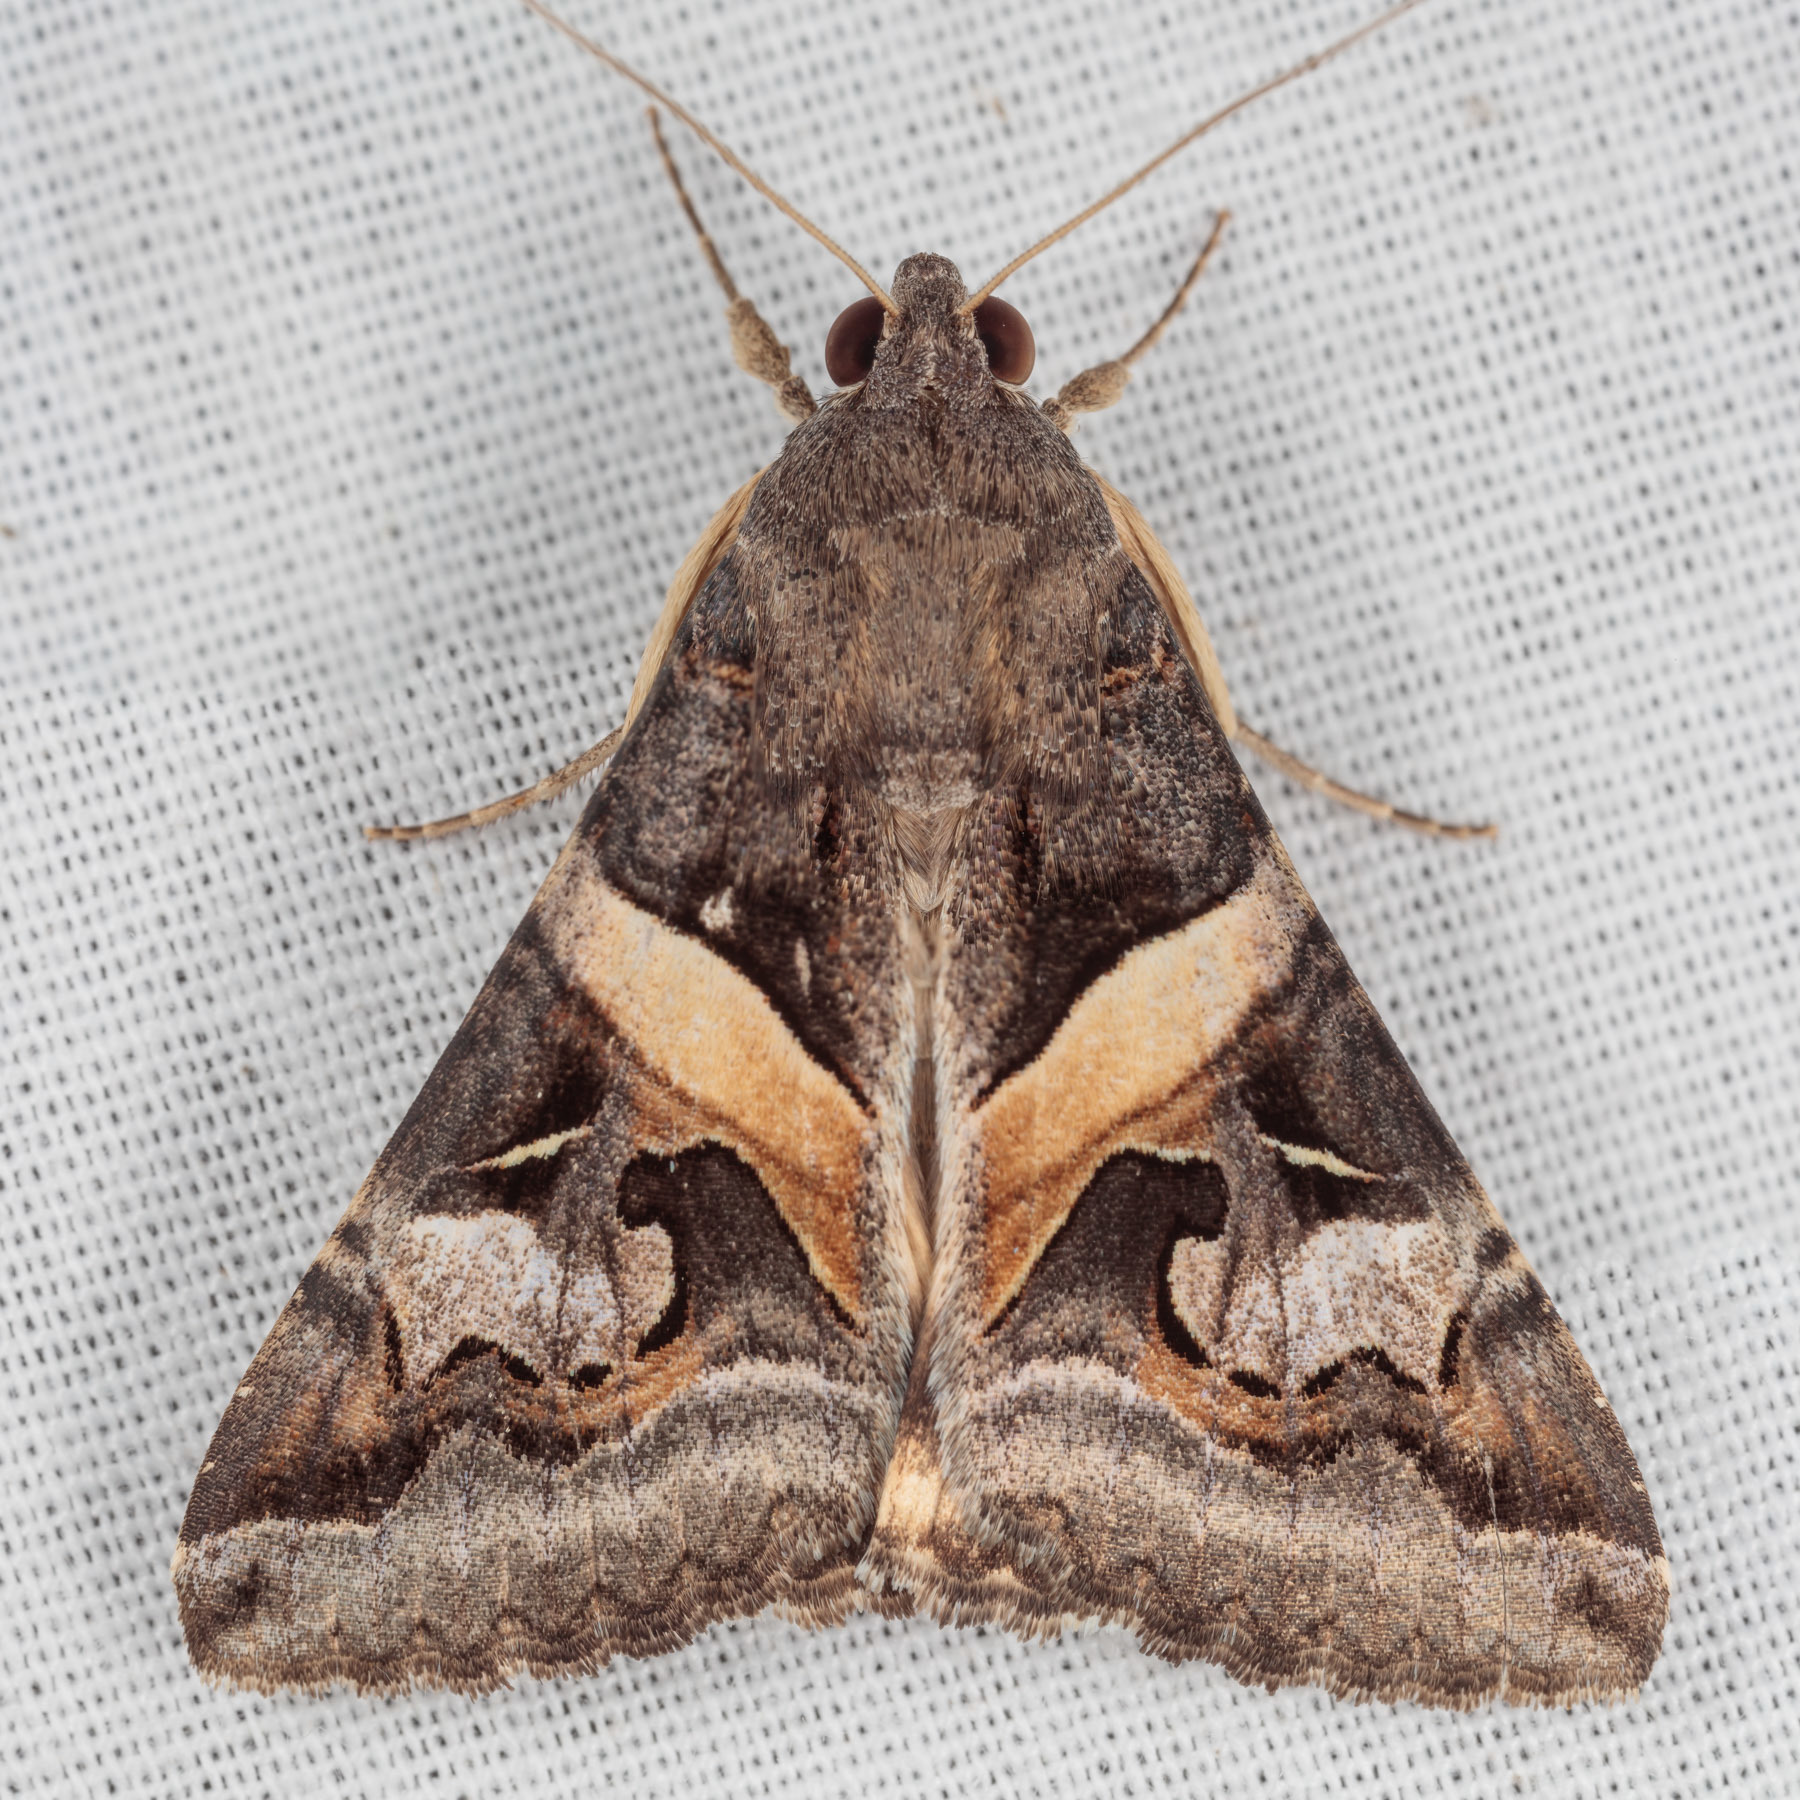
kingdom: Animalia
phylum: Arthropoda
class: Insecta
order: Lepidoptera
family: Erebidae
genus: Melipotis
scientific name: Melipotis indomita
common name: Moth
